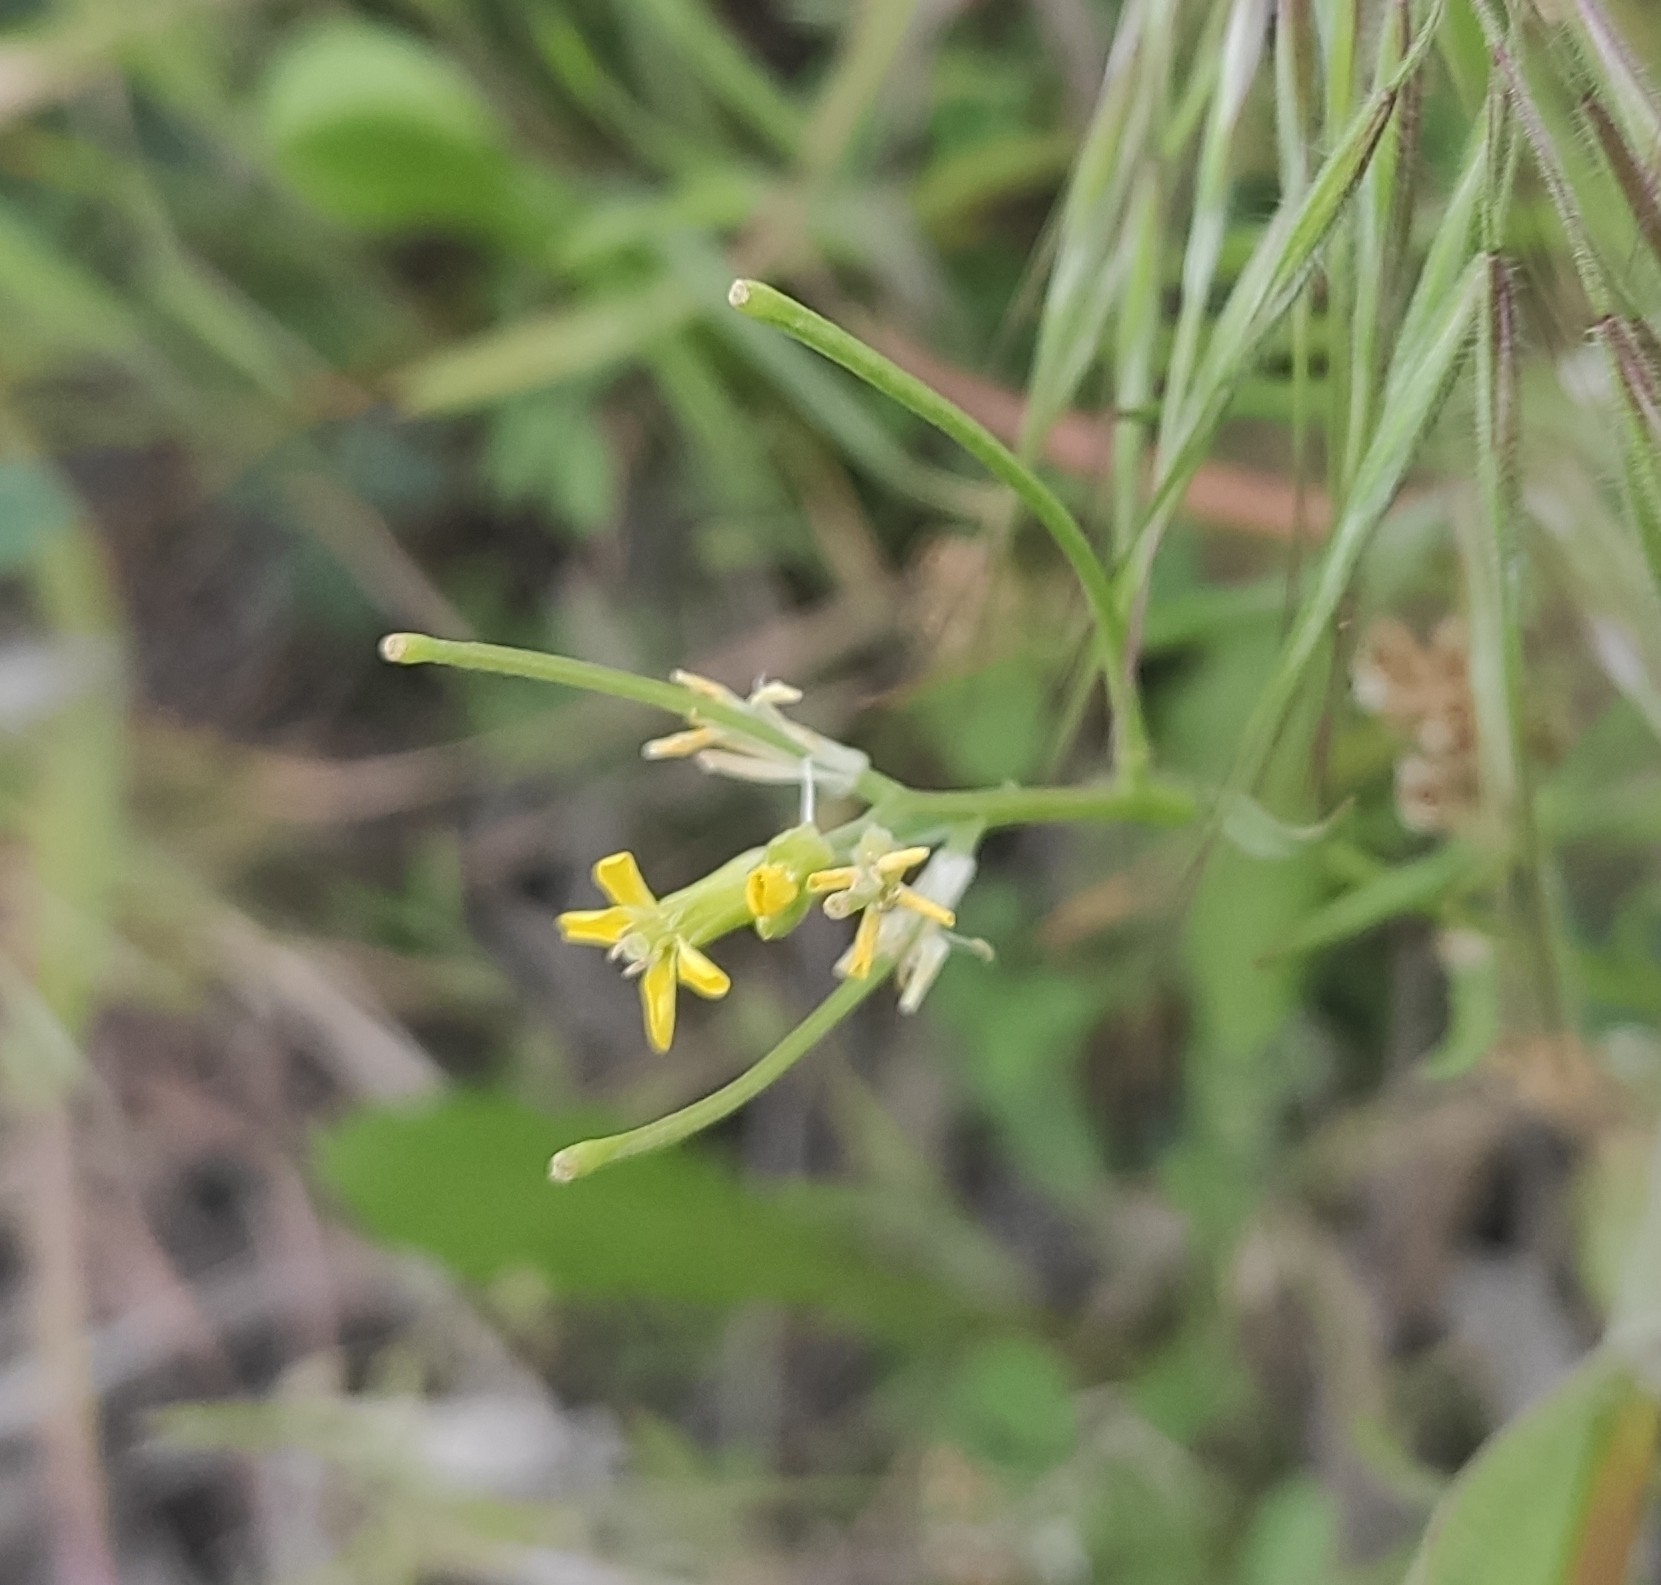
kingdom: Plantae
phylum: Tracheophyta
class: Magnoliopsida
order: Brassicales
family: Brassicaceae
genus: Erysimum
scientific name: Erysimum repandum
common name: Spreading wallflower
